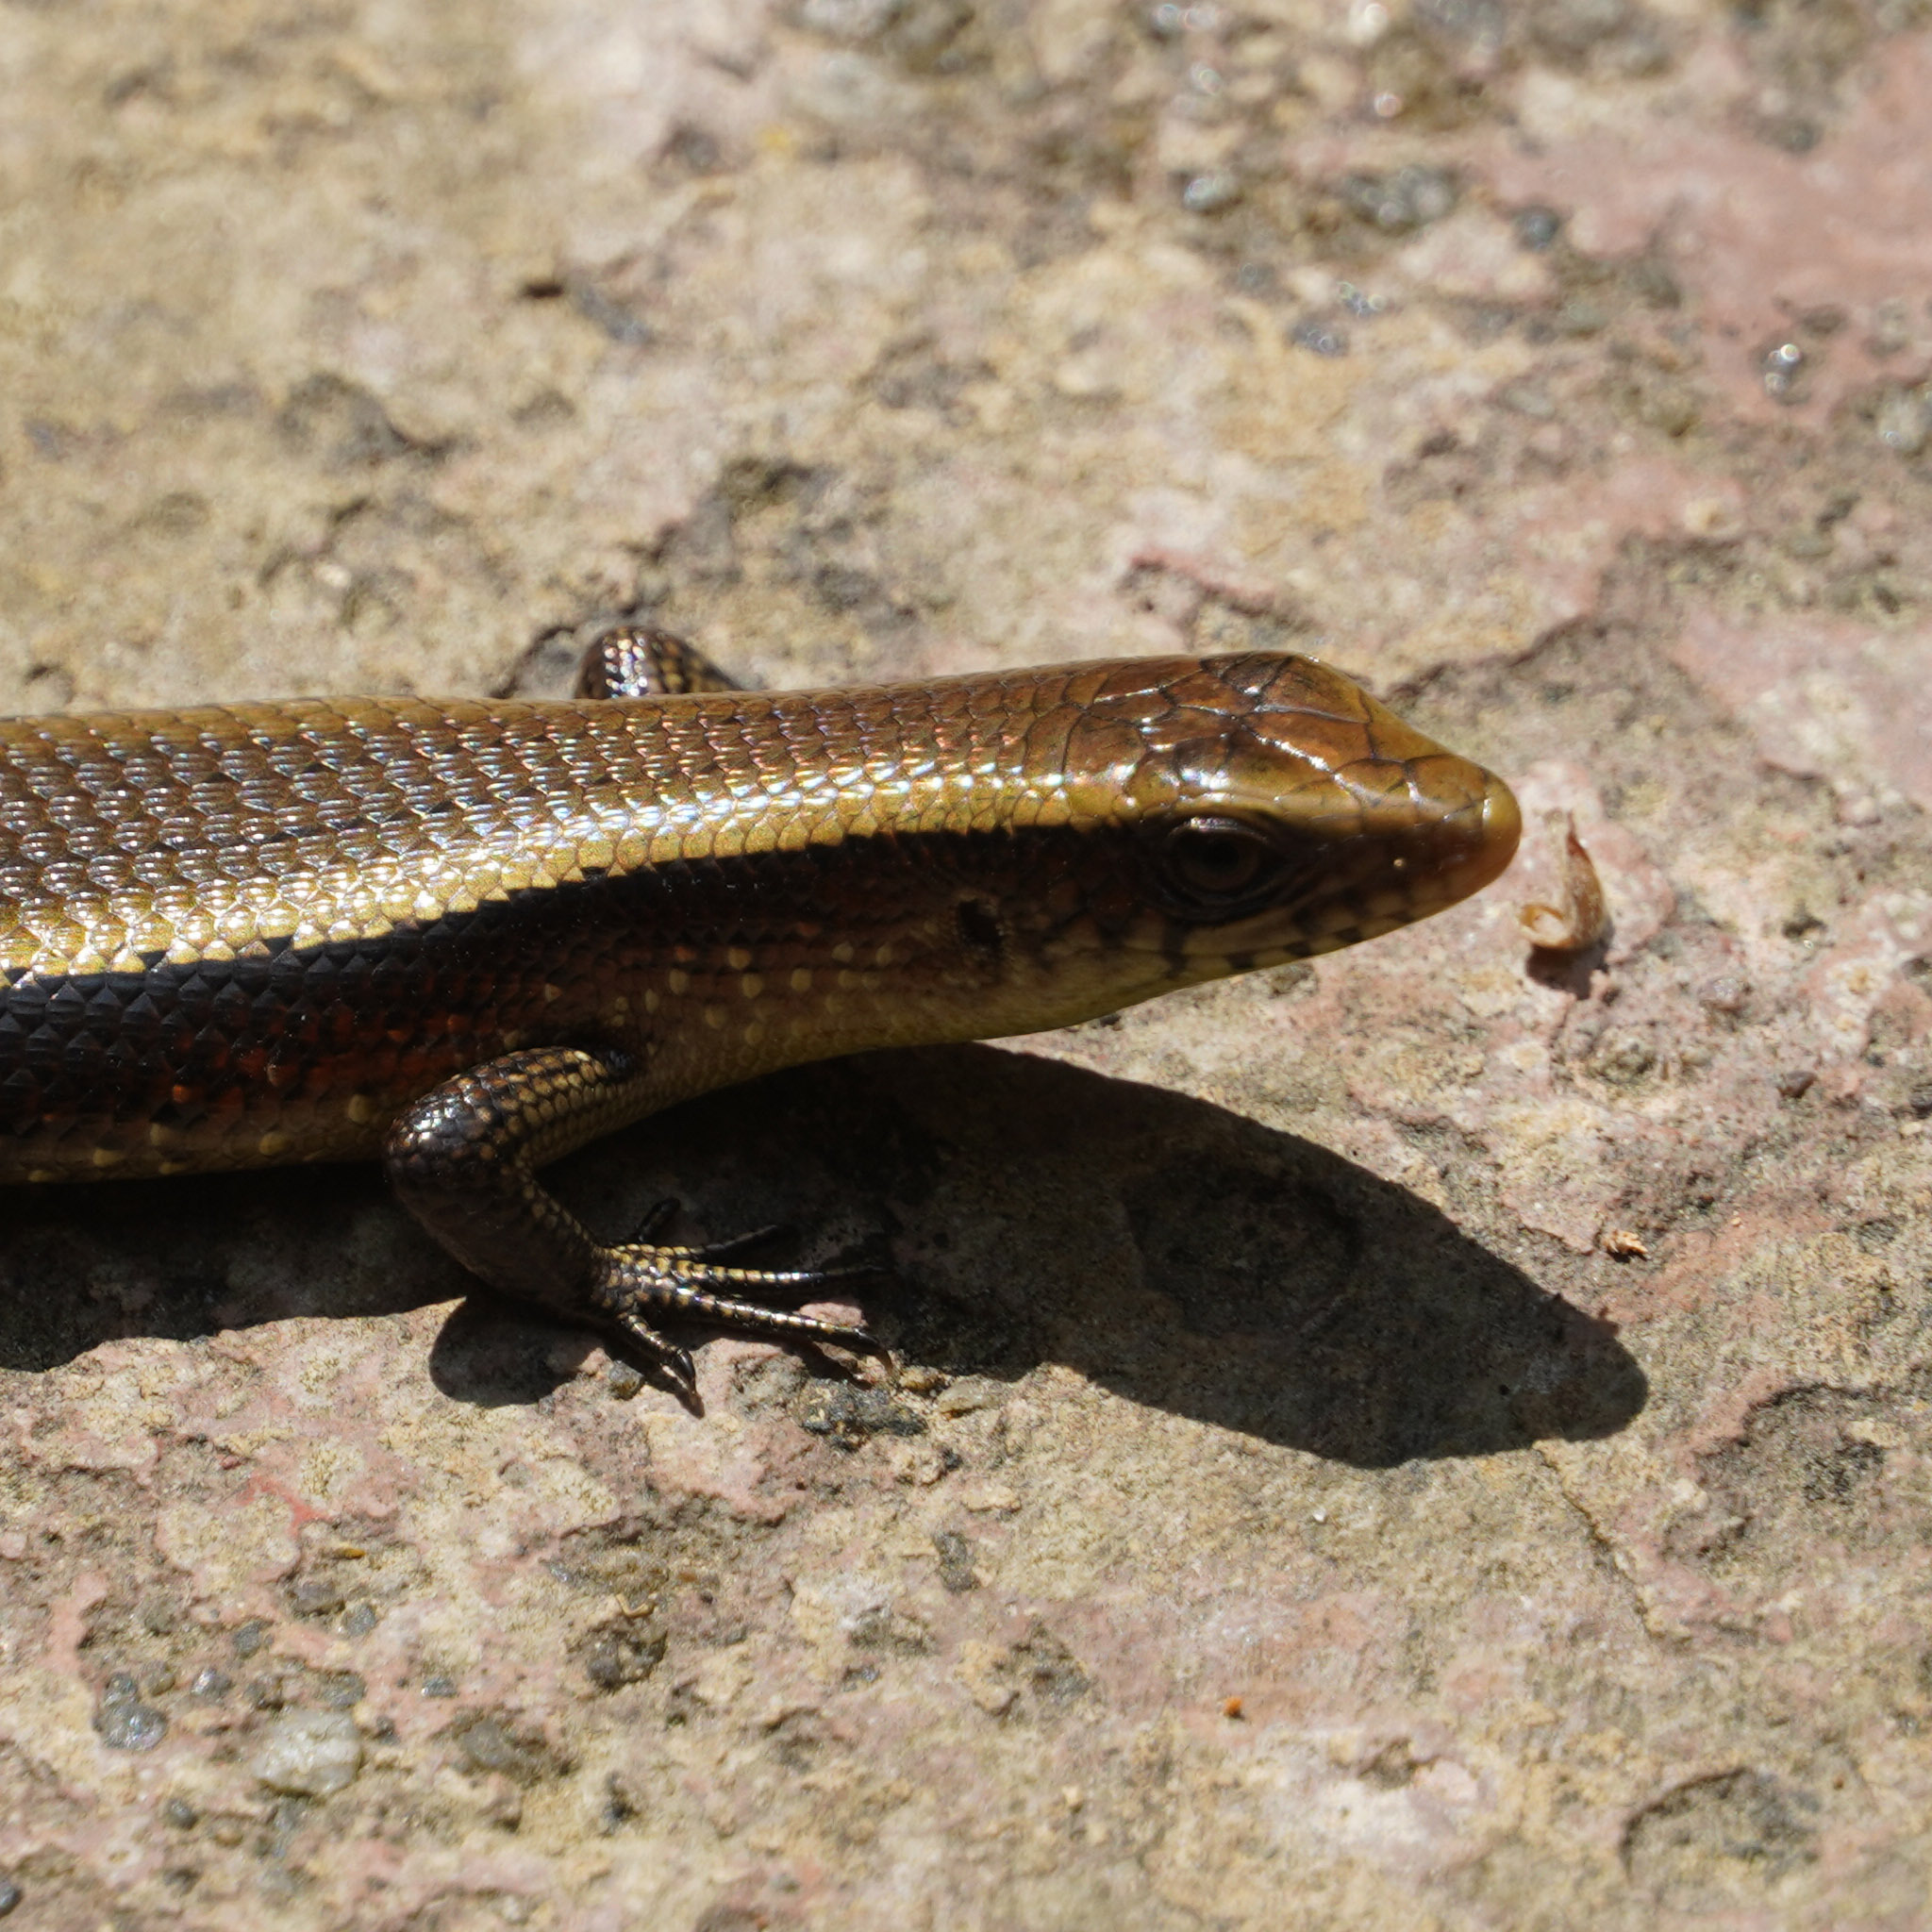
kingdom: Animalia
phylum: Chordata
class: Squamata
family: Scincidae
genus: Eutropis
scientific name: Eutropis multifasciata
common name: Common mabuya
